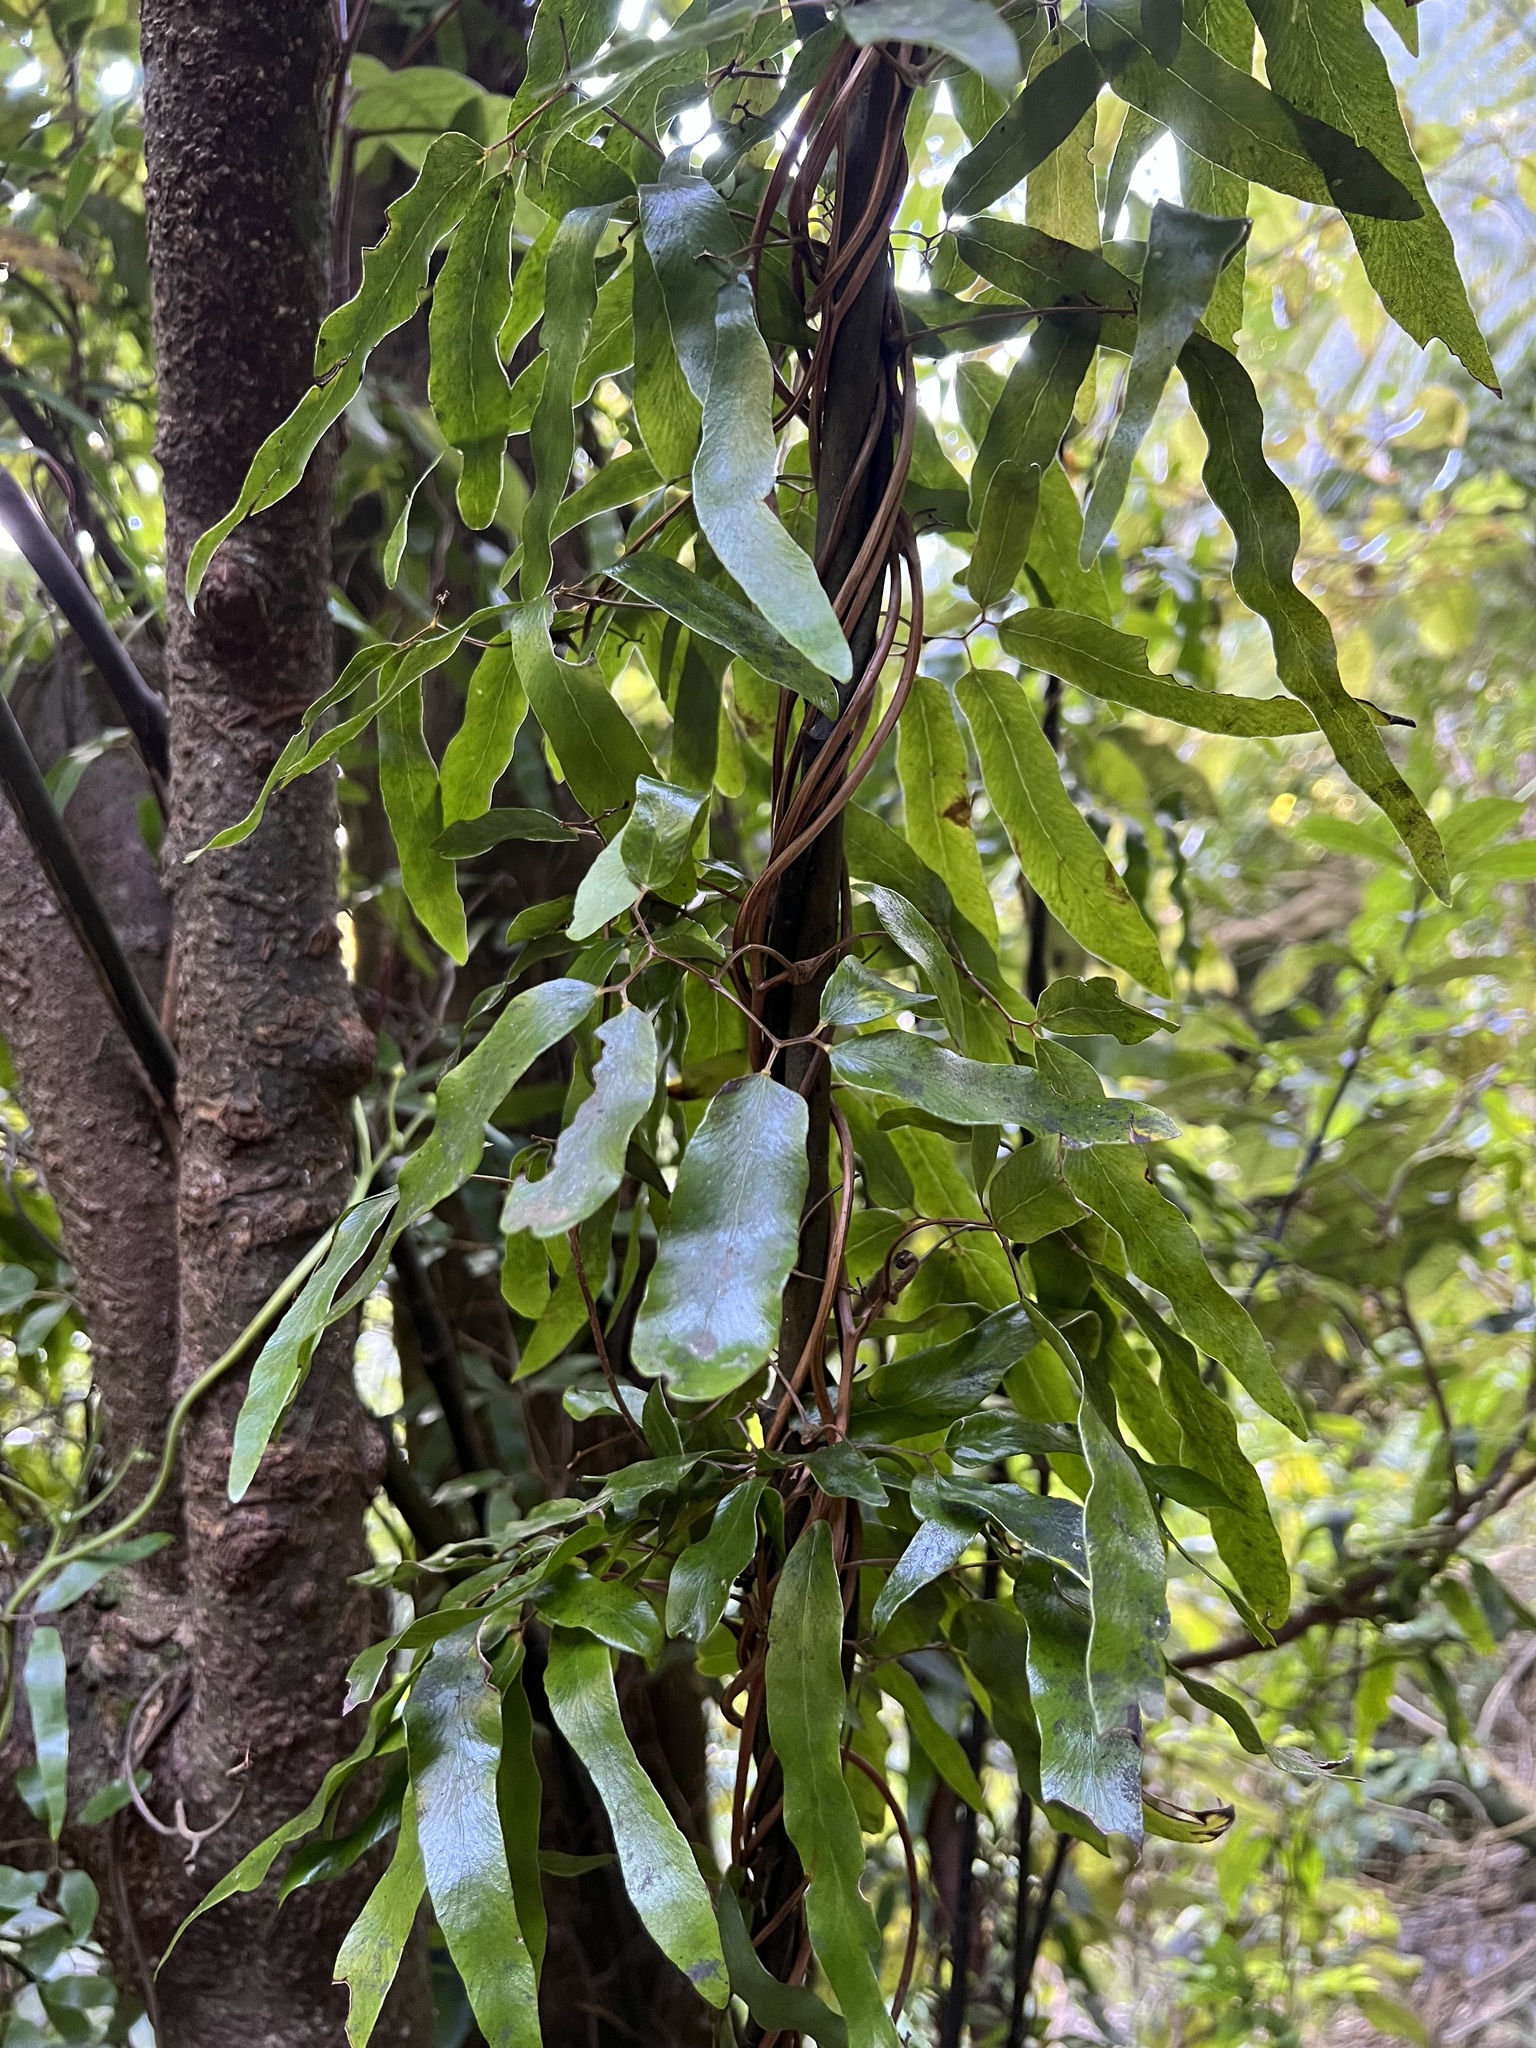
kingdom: Plantae
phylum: Tracheophyta
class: Polypodiopsida
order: Schizaeales
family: Lygodiaceae
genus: Lygodium
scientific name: Lygodium articulatum
